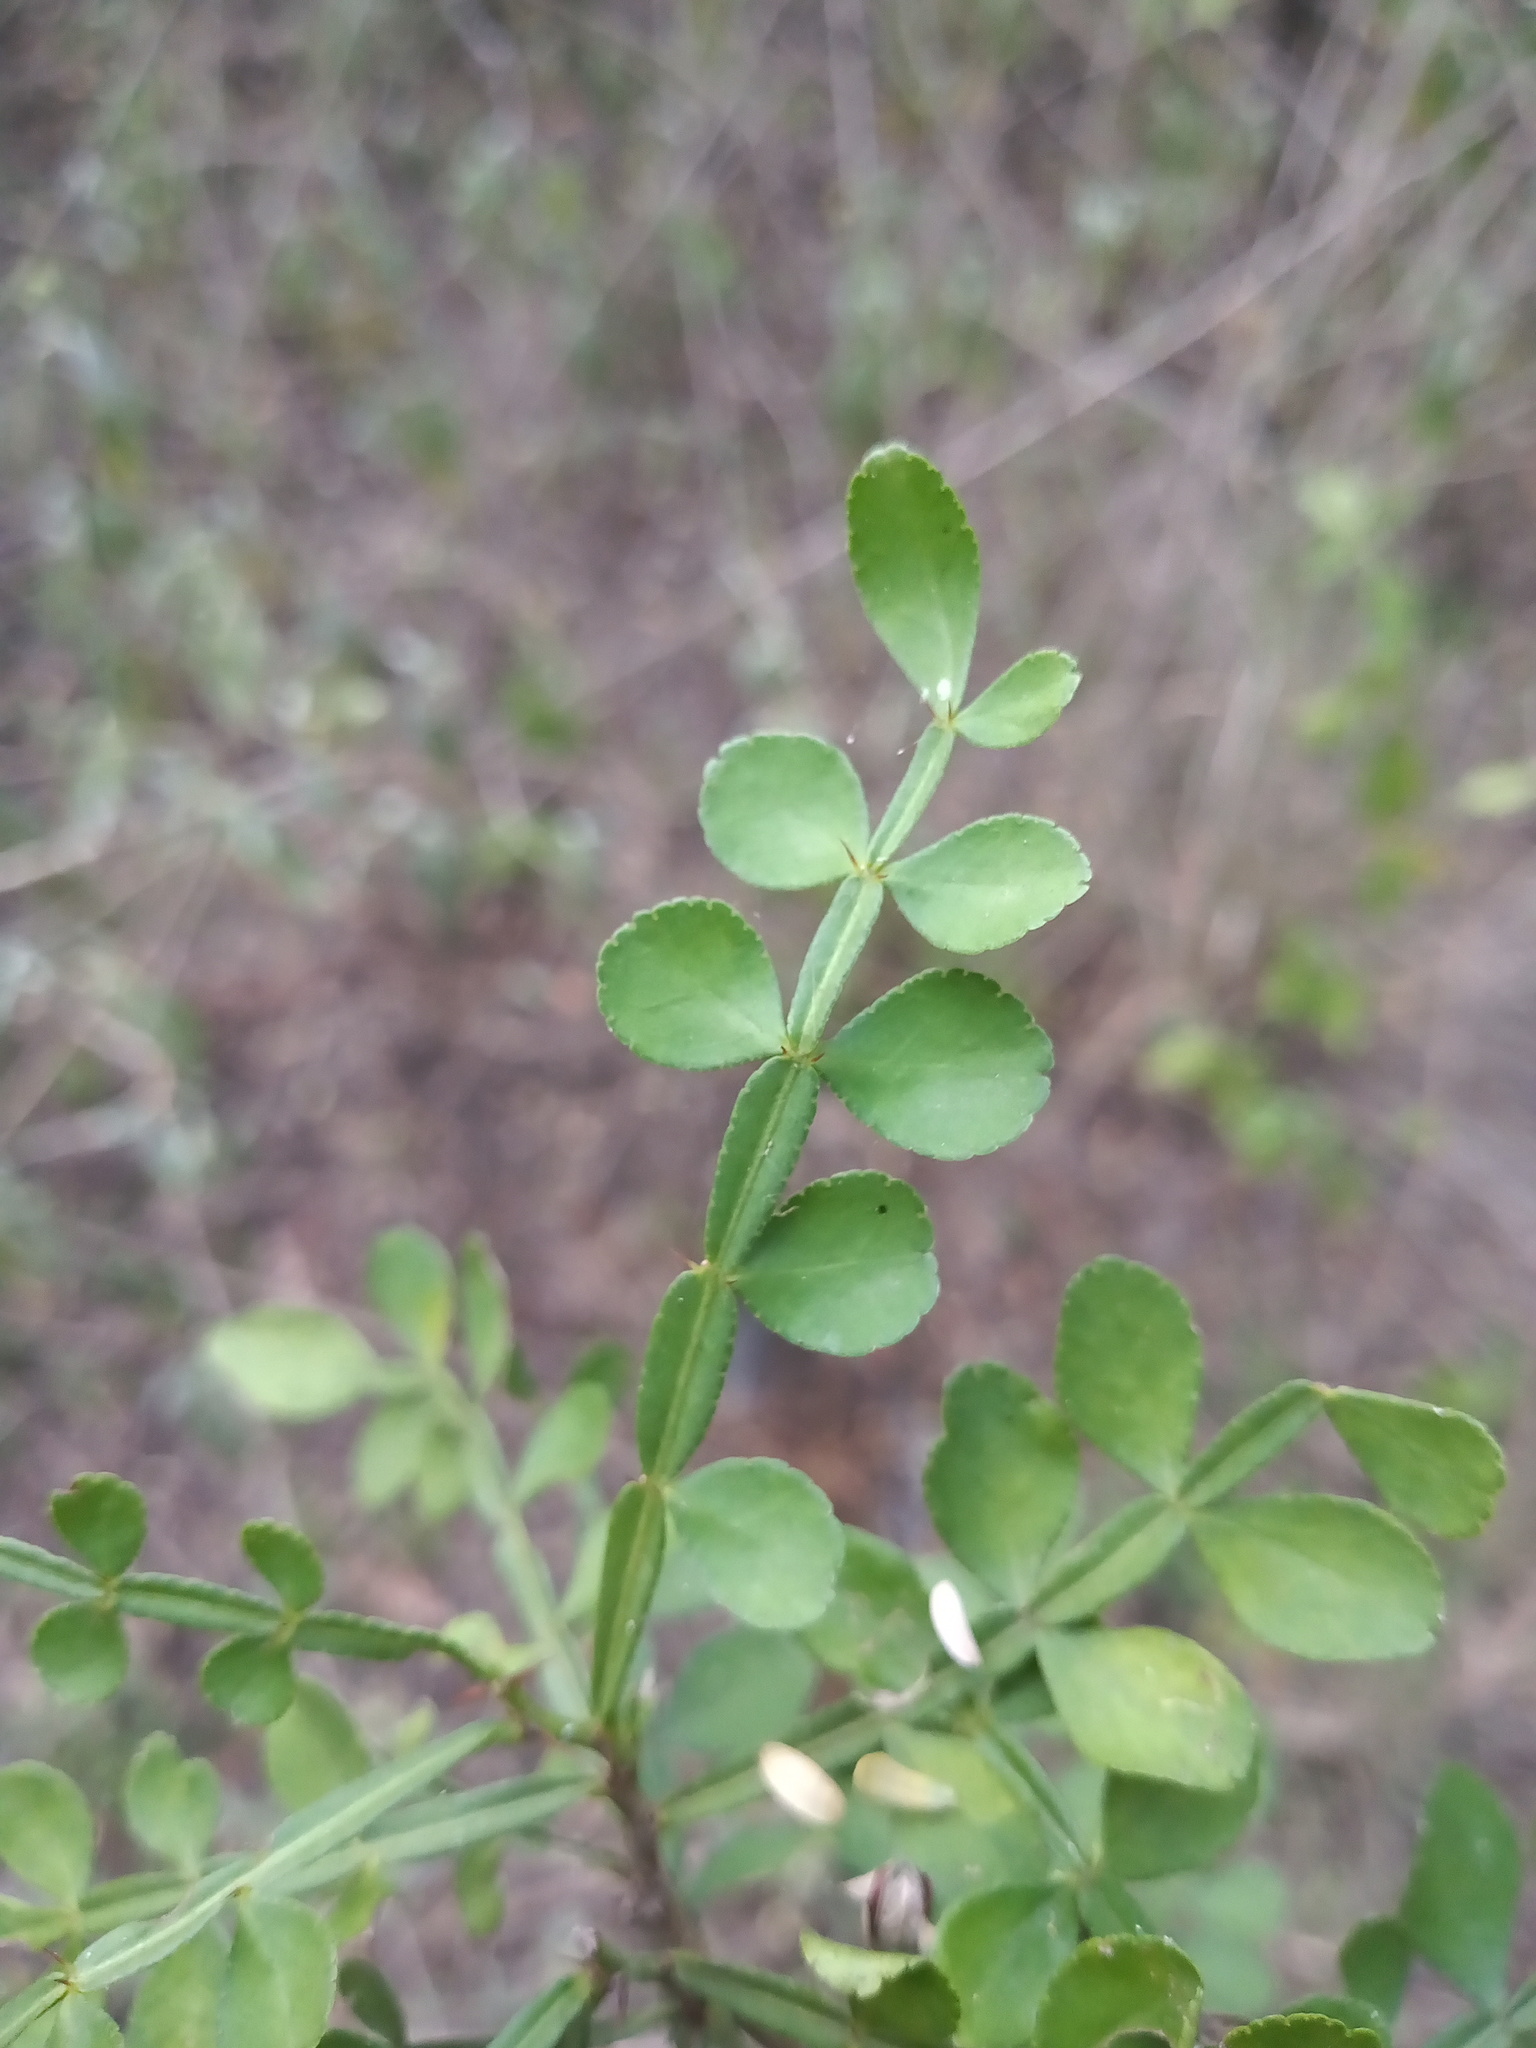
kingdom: Plantae
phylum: Tracheophyta
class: Magnoliopsida
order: Sapindales
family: Rutaceae
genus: Zanthoxylum
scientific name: Zanthoxylum fagara
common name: Lime prickly-ash
